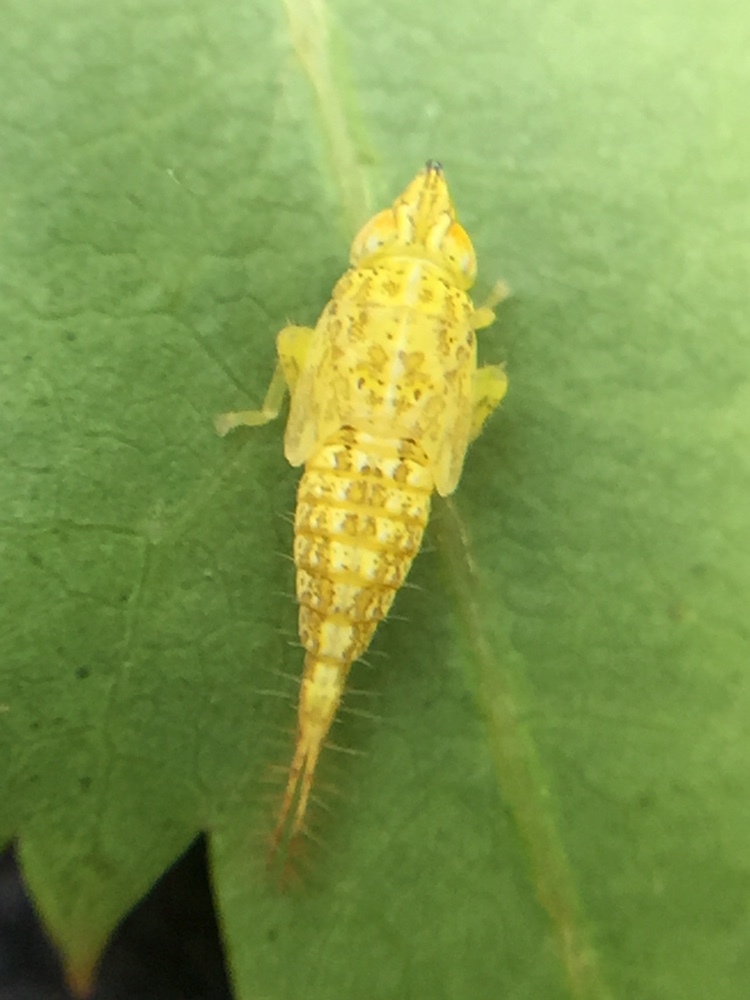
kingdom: Animalia
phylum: Arthropoda
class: Insecta
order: Hemiptera
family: Cicadellidae
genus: Japananus
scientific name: Japananus hyalinus
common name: The japanese maple leafhopper
